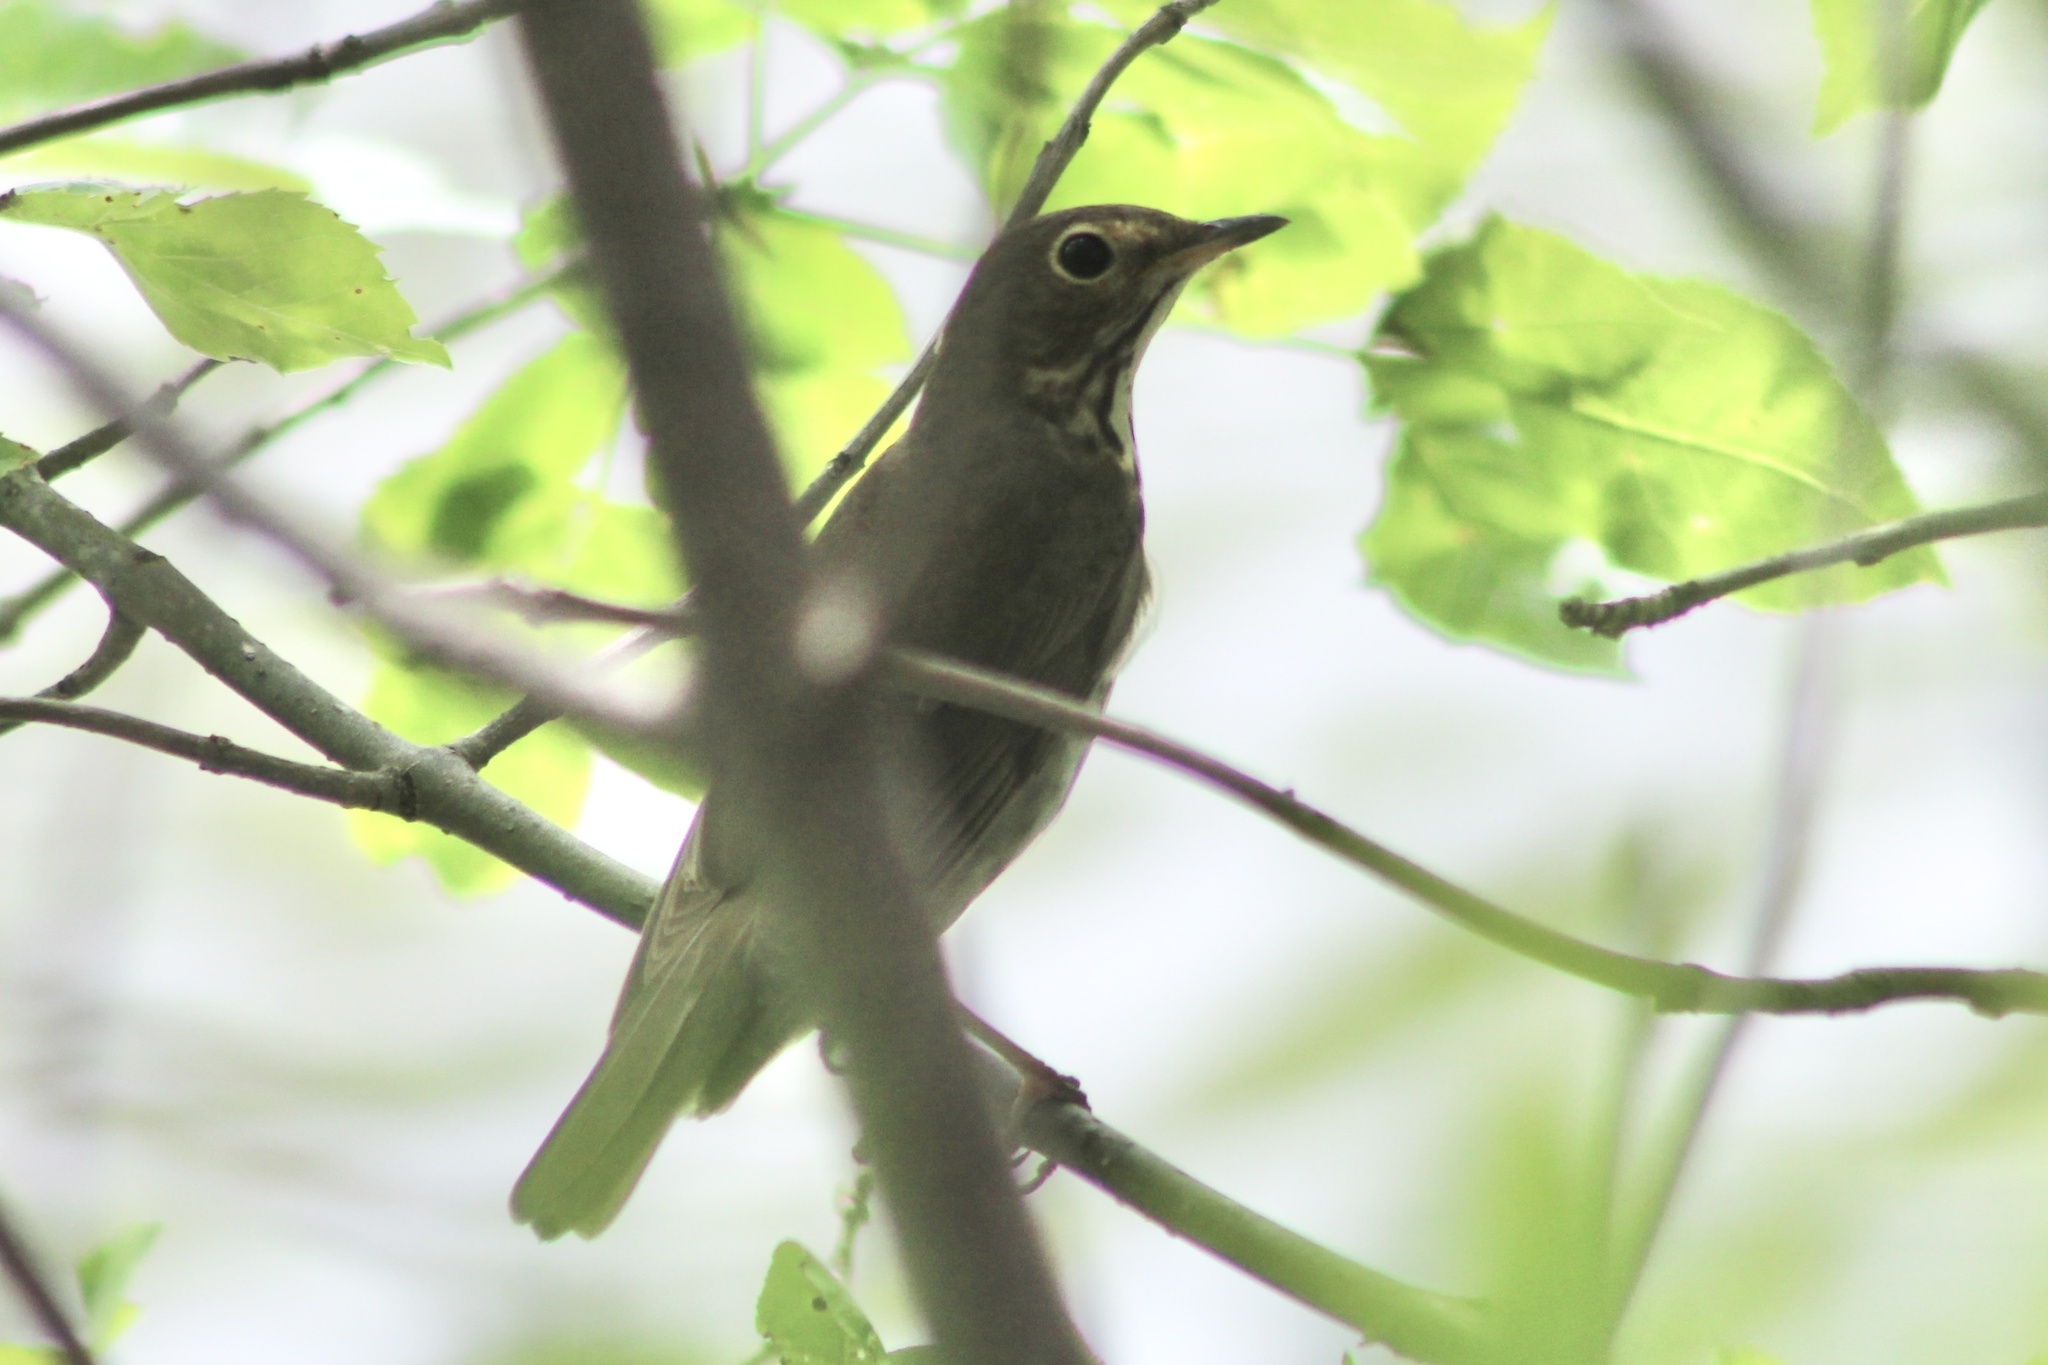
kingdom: Animalia
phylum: Chordata
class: Aves
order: Passeriformes
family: Turdidae
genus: Catharus
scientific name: Catharus ustulatus
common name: Swainson's thrush
